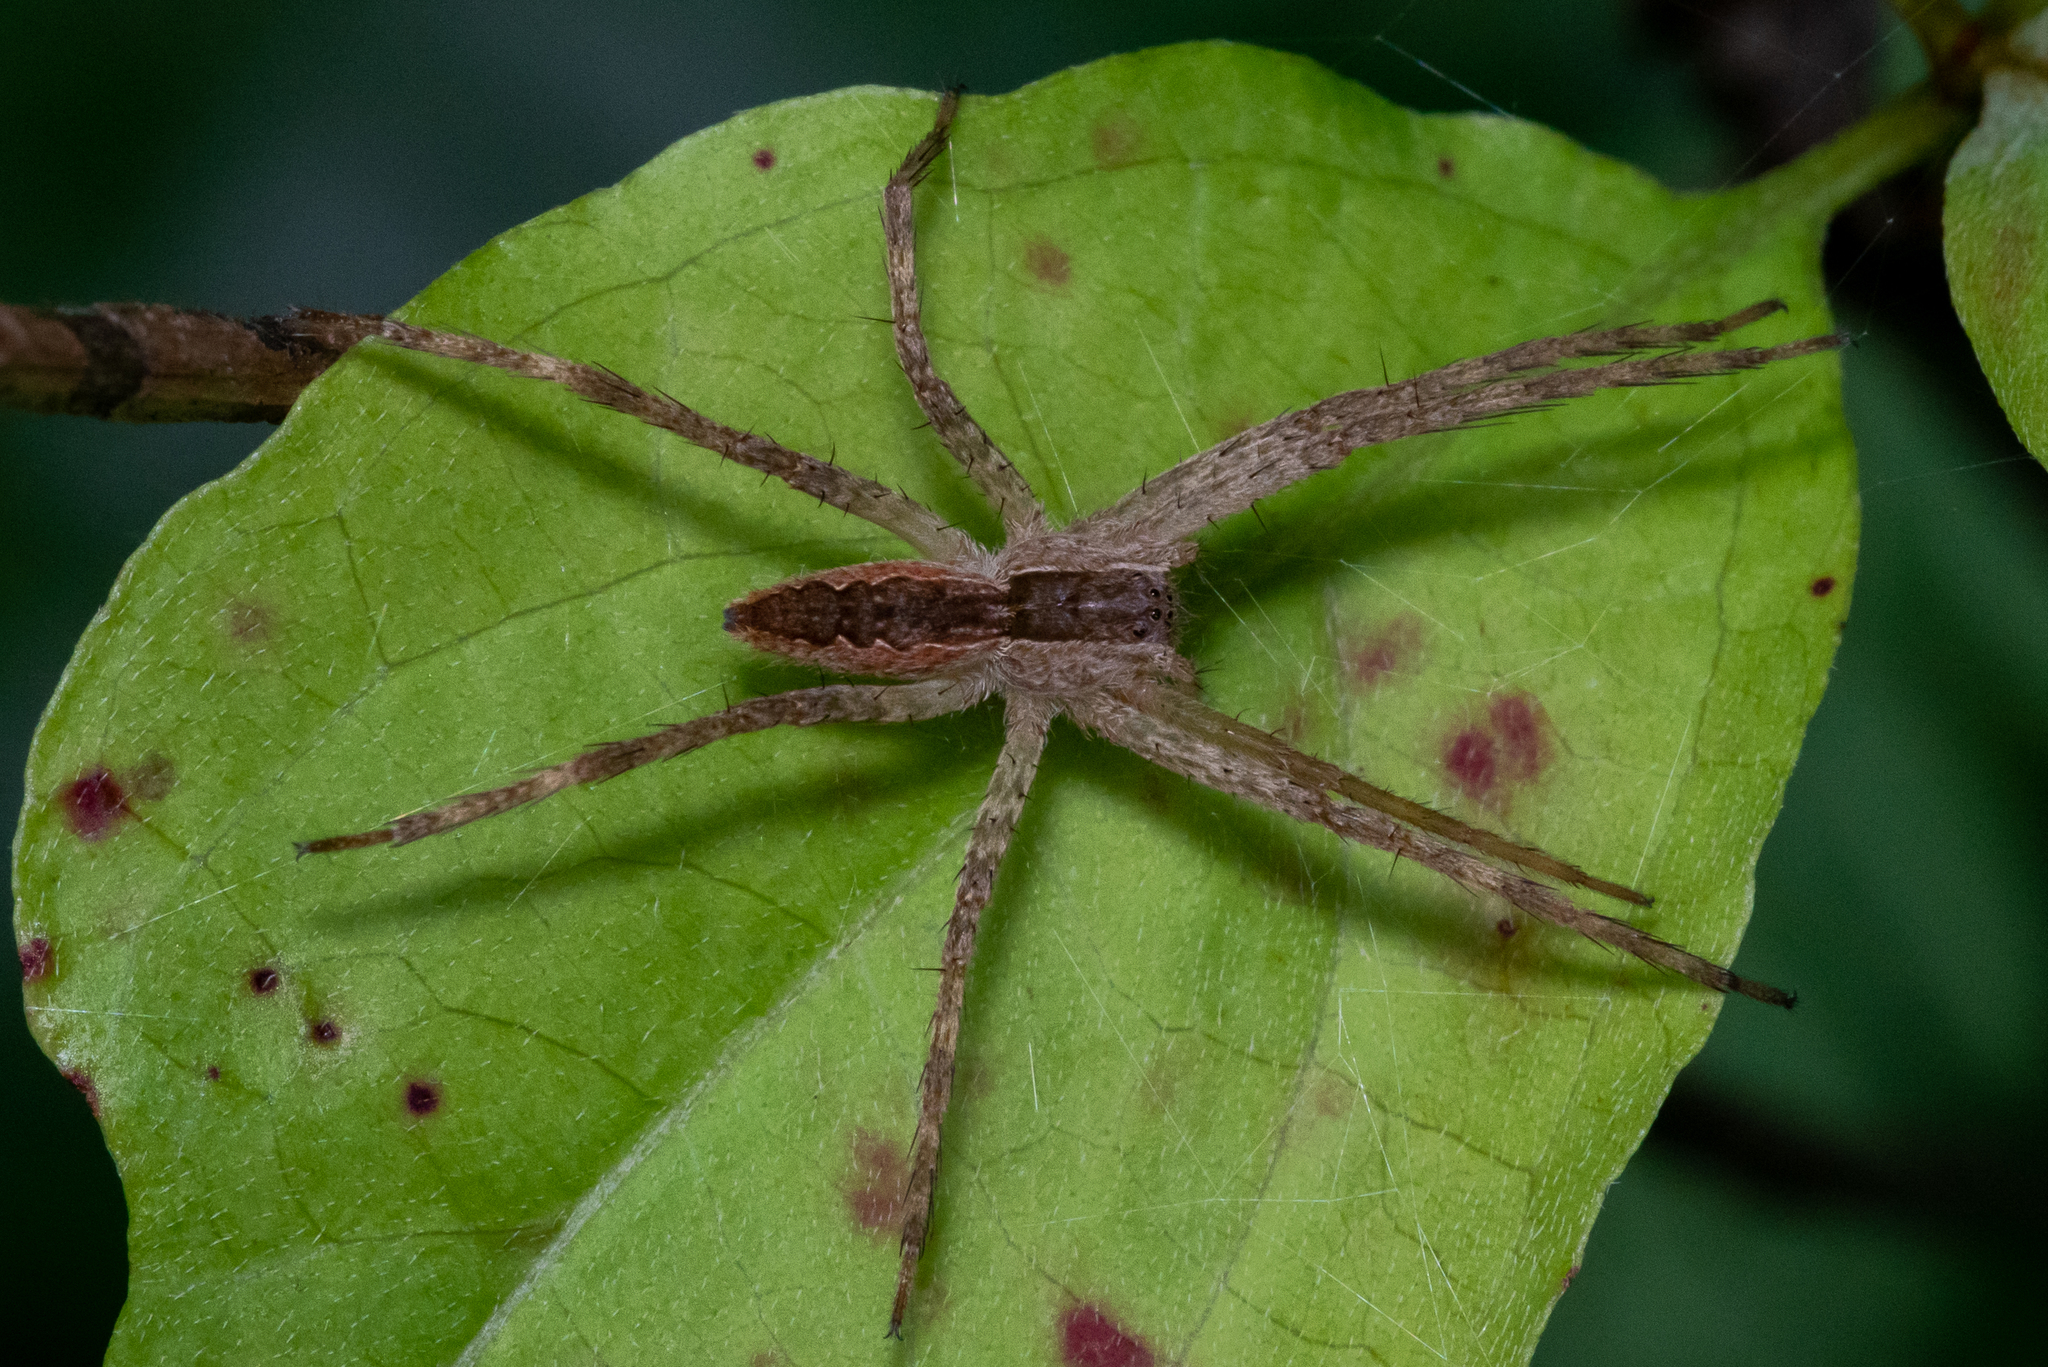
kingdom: Animalia
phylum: Arthropoda
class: Arachnida
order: Araneae
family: Pisauridae
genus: Pisaurina
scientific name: Pisaurina mira
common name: American nursery web spider
